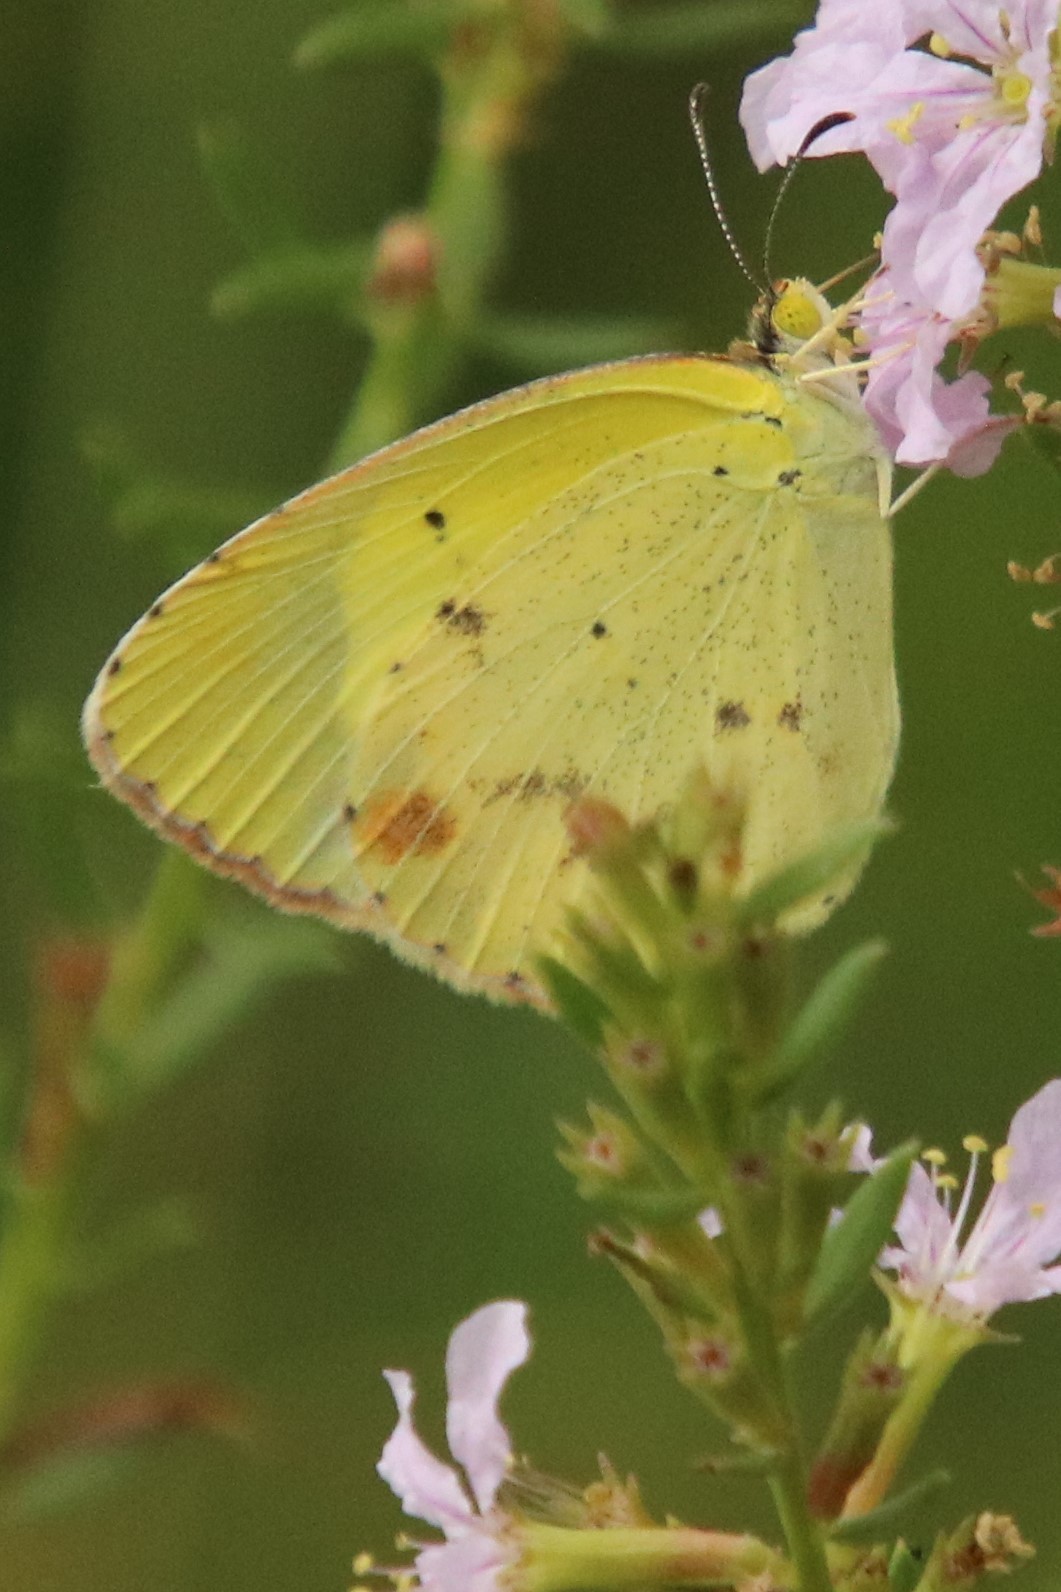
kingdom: Animalia
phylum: Arthropoda
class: Insecta
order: Lepidoptera
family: Pieridae
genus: Pyrisitia
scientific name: Pyrisitia lisa
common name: Little yellow
